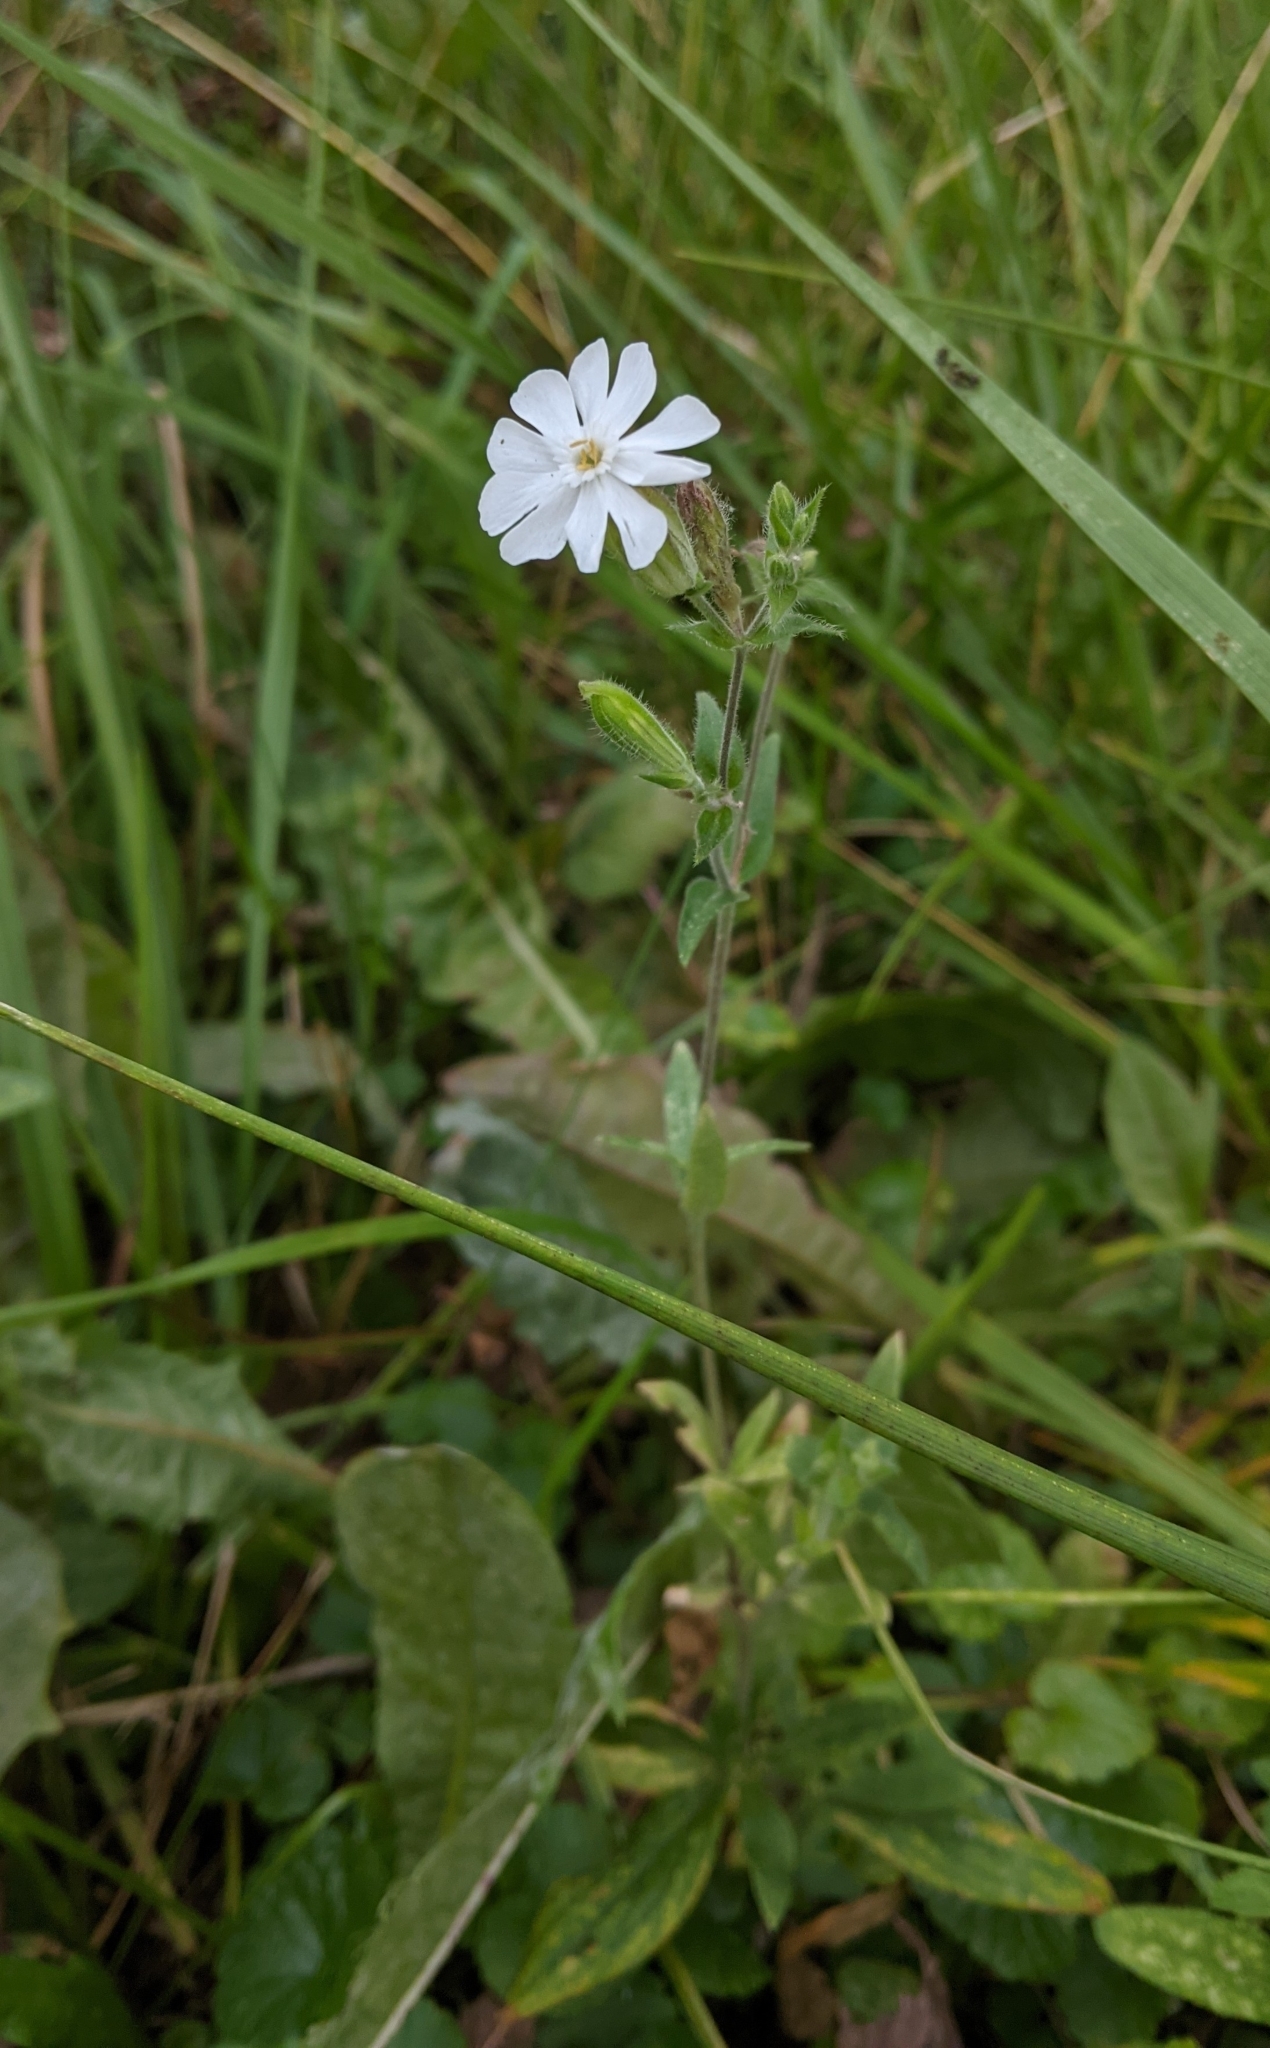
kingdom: Plantae
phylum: Tracheophyta
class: Magnoliopsida
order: Caryophyllales
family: Caryophyllaceae
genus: Silene
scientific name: Silene latifolia
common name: White campion
